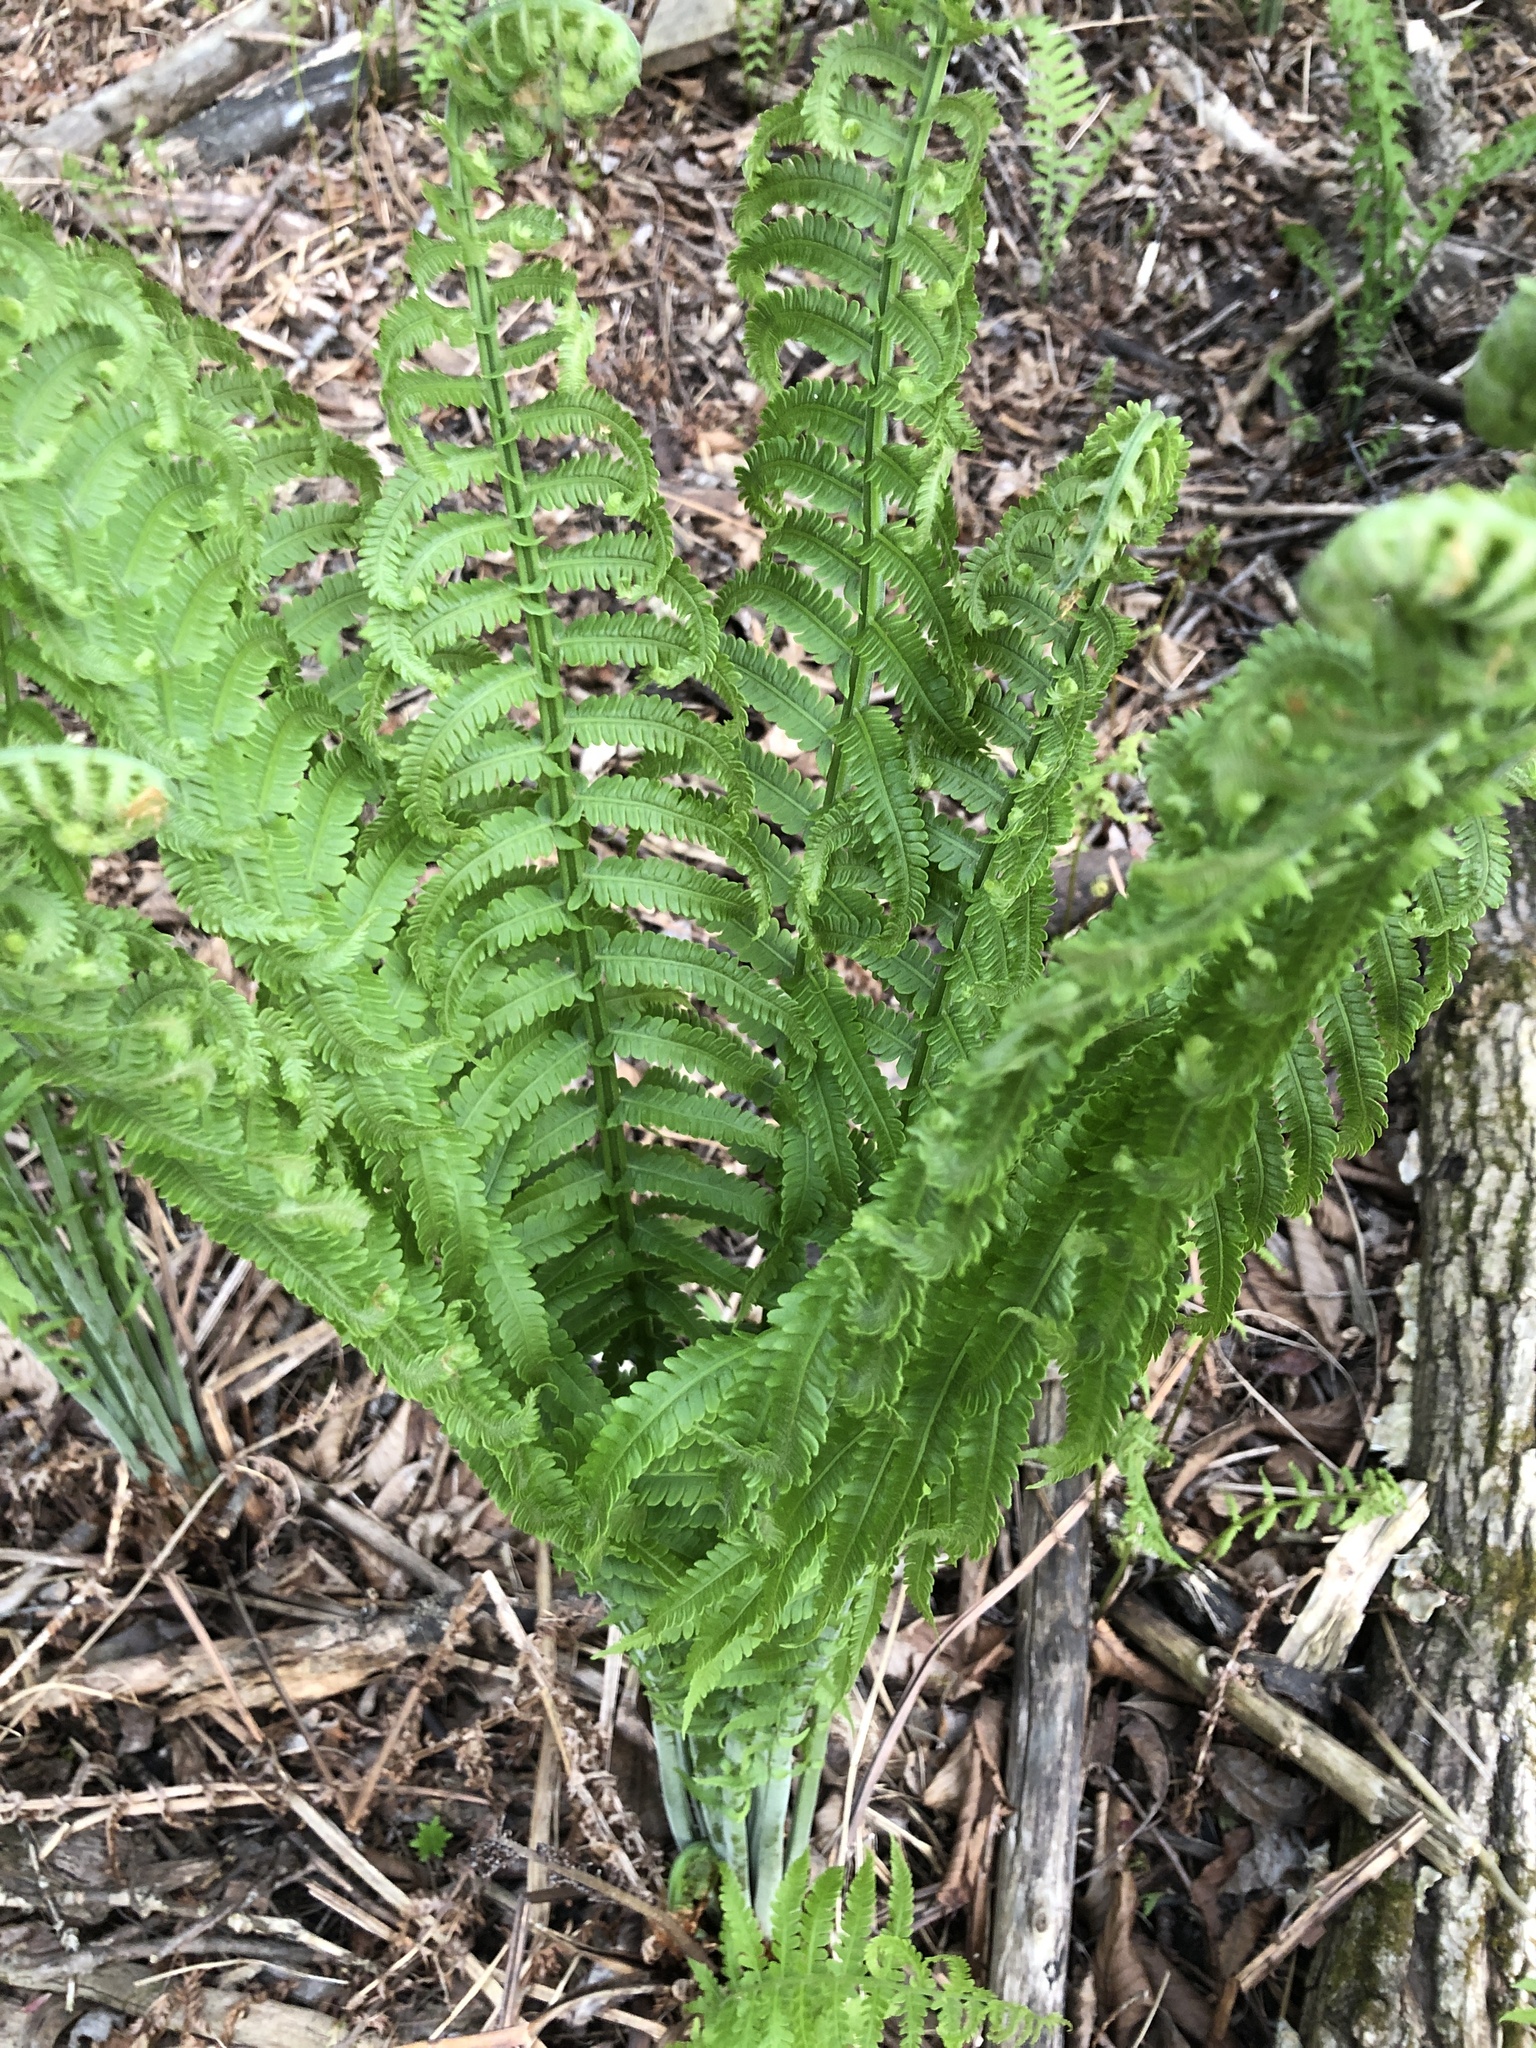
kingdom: Plantae
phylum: Tracheophyta
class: Polypodiopsida
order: Polypodiales
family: Onocleaceae
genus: Matteuccia
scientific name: Matteuccia struthiopteris
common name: Ostrich fern
